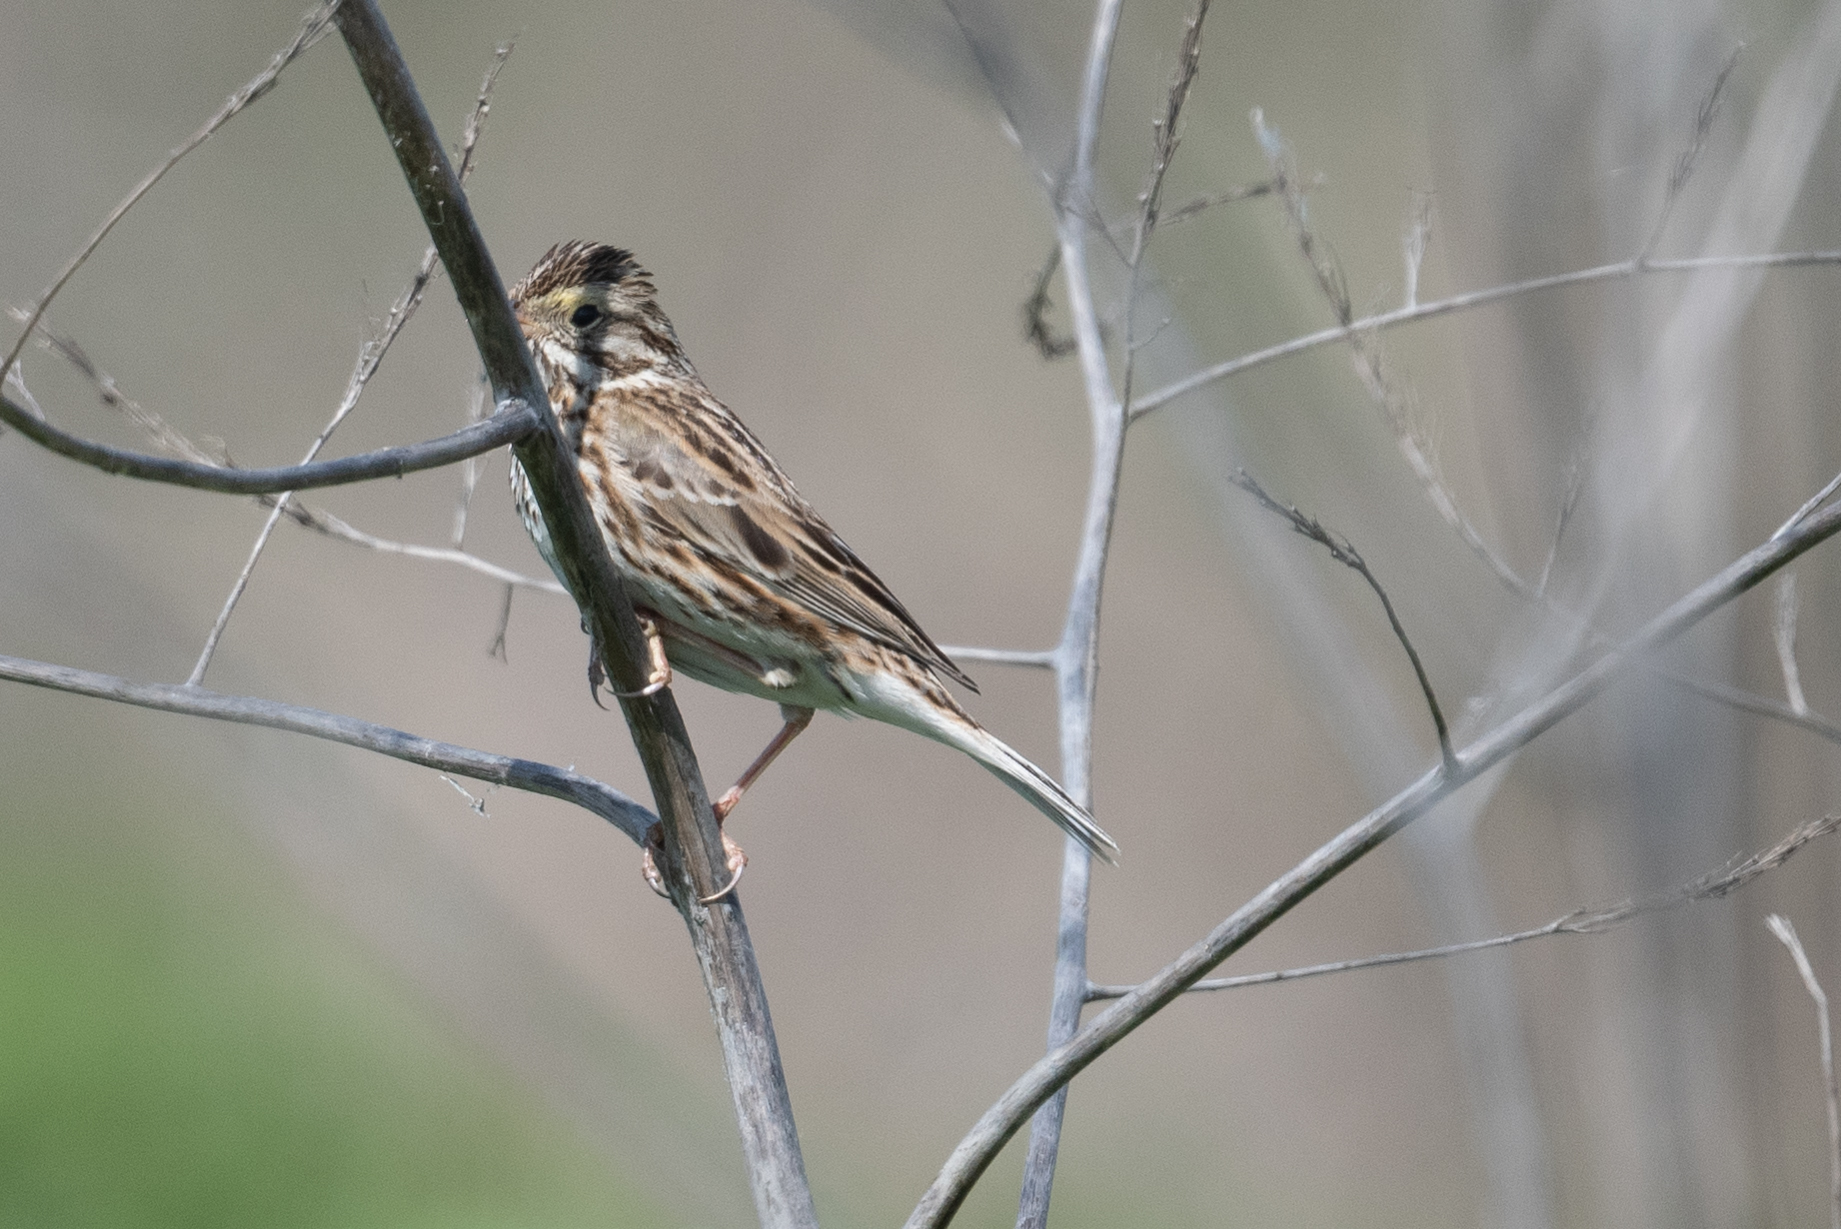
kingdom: Animalia
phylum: Chordata
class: Aves
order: Passeriformes
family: Passerellidae
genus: Passerculus
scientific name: Passerculus sandwichensis
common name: Savannah sparrow
